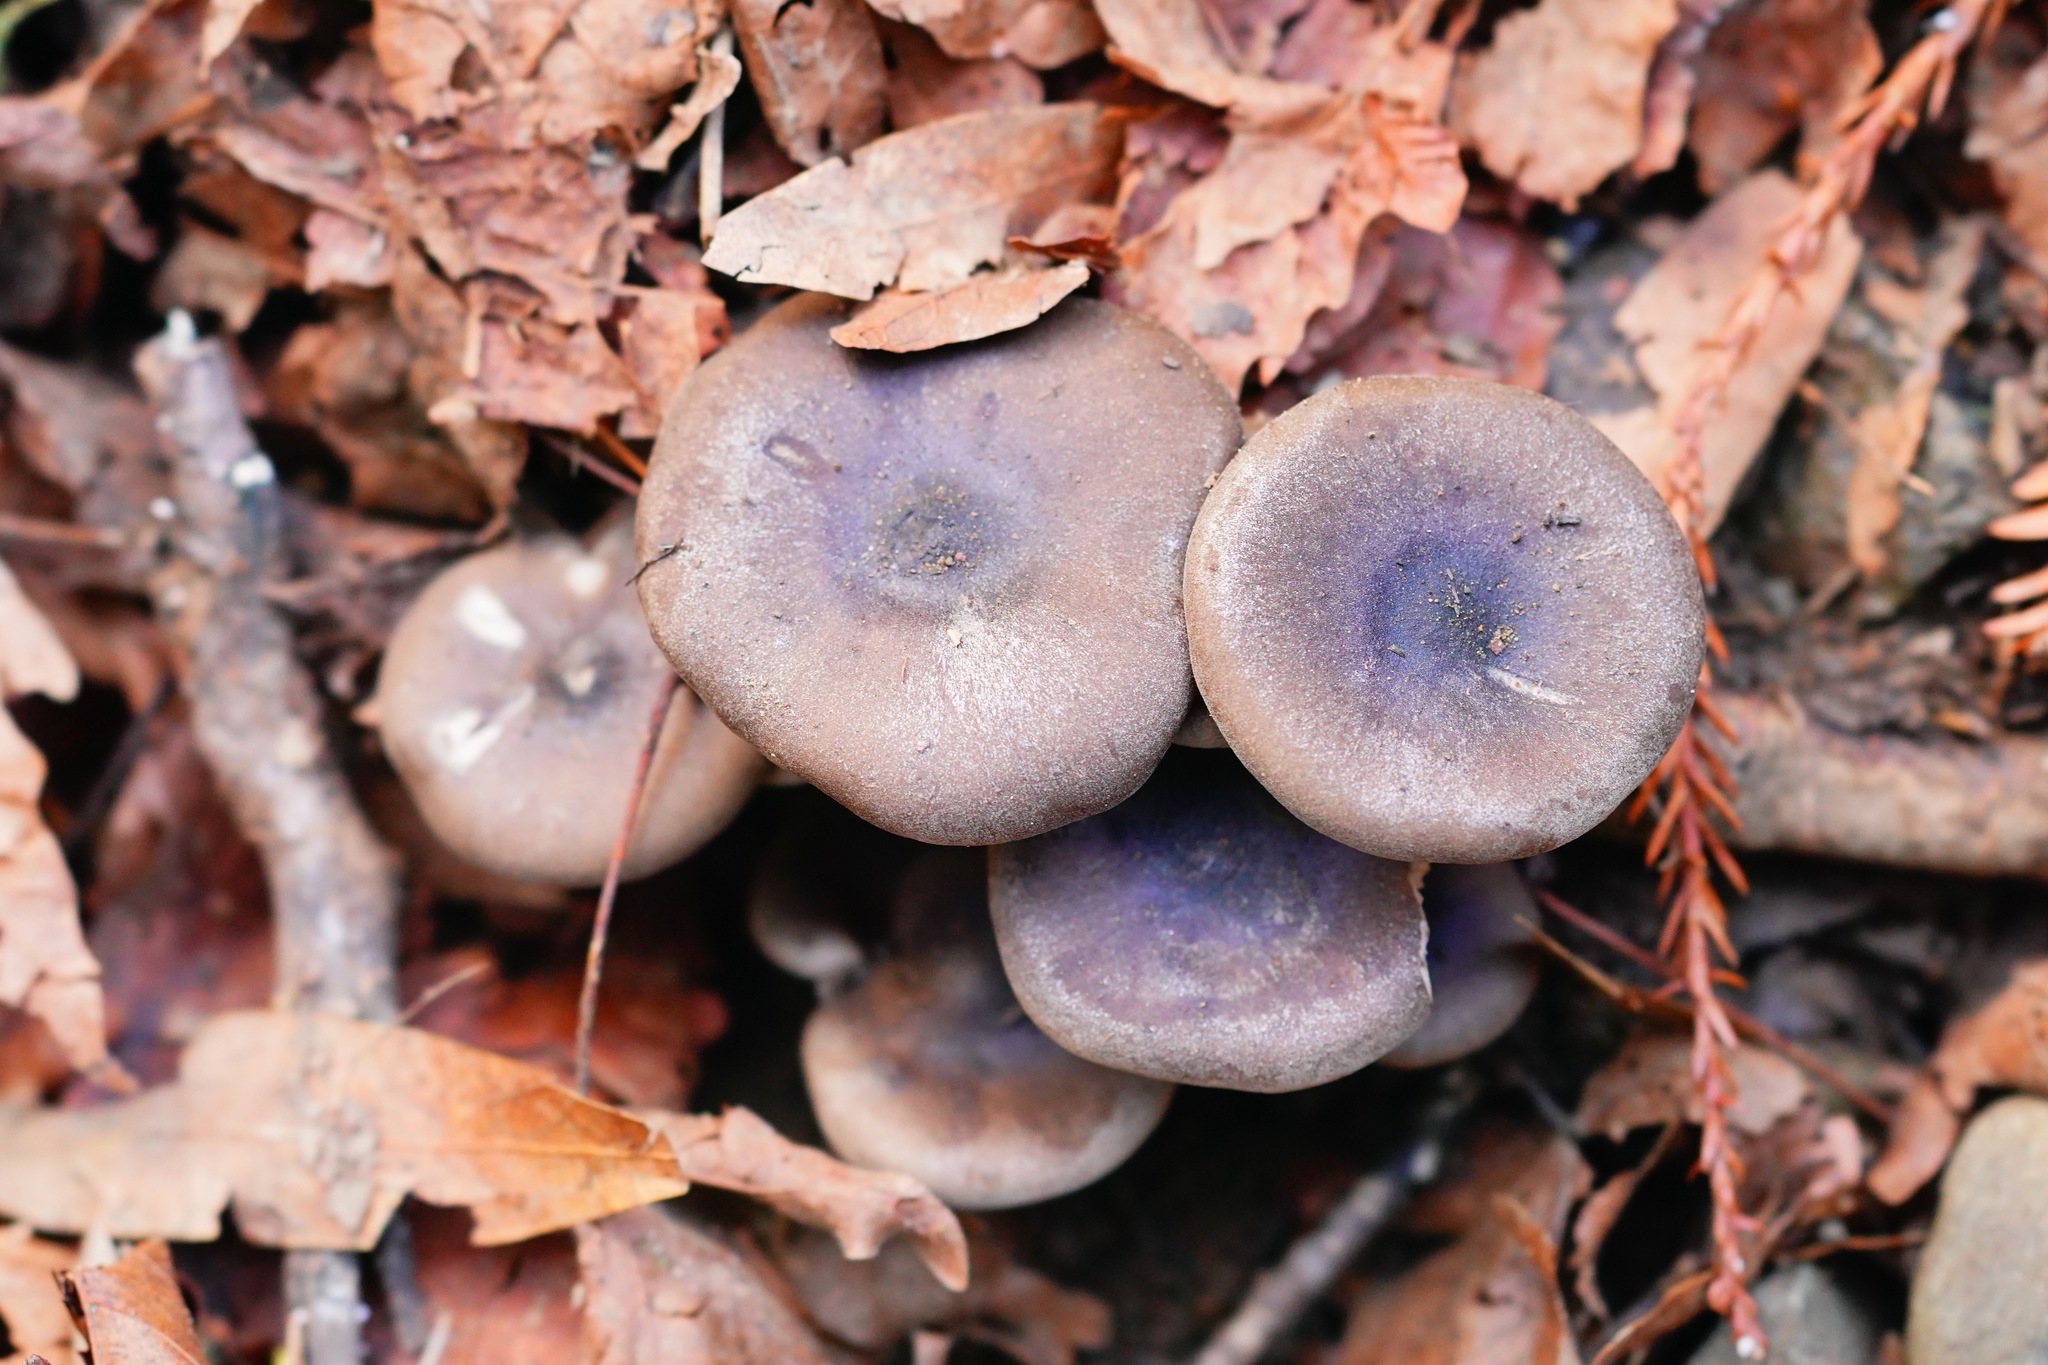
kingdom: Fungi
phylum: Basidiomycota
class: Agaricomycetes
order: Agaricales
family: Pseudoclitocybaceae
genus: Pseudoclitocybe
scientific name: Pseudoclitocybe cyathiformis
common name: Goblet
